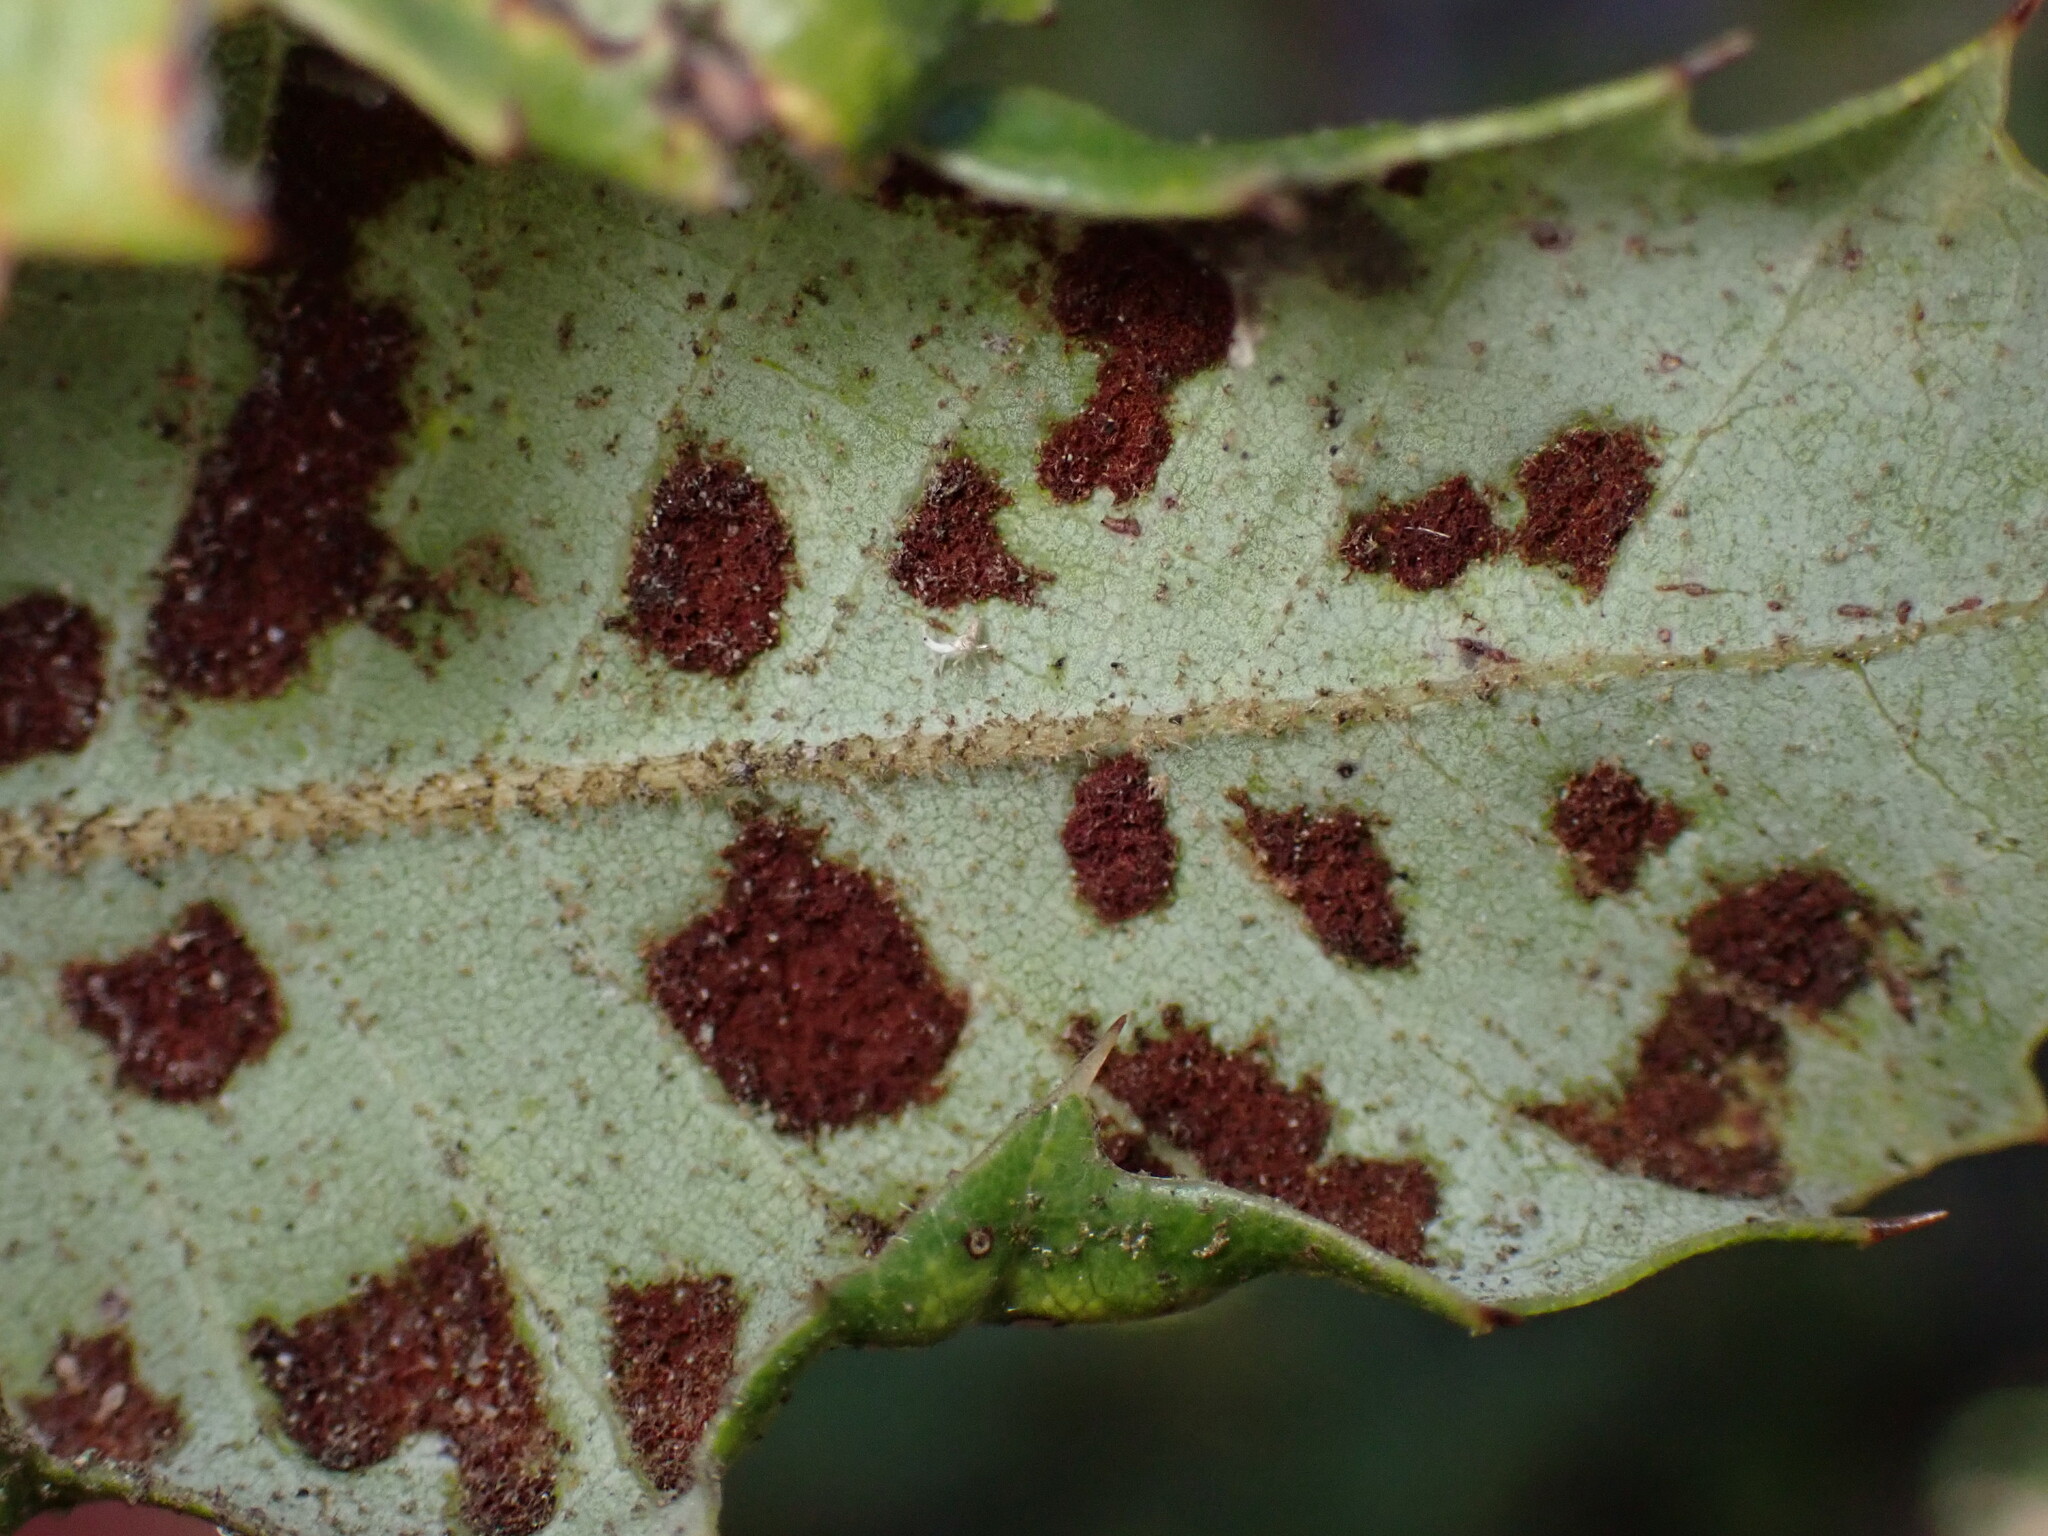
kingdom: Animalia
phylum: Arthropoda
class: Arachnida
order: Trombidiformes
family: Eriophyidae
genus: Aceria
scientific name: Aceria
